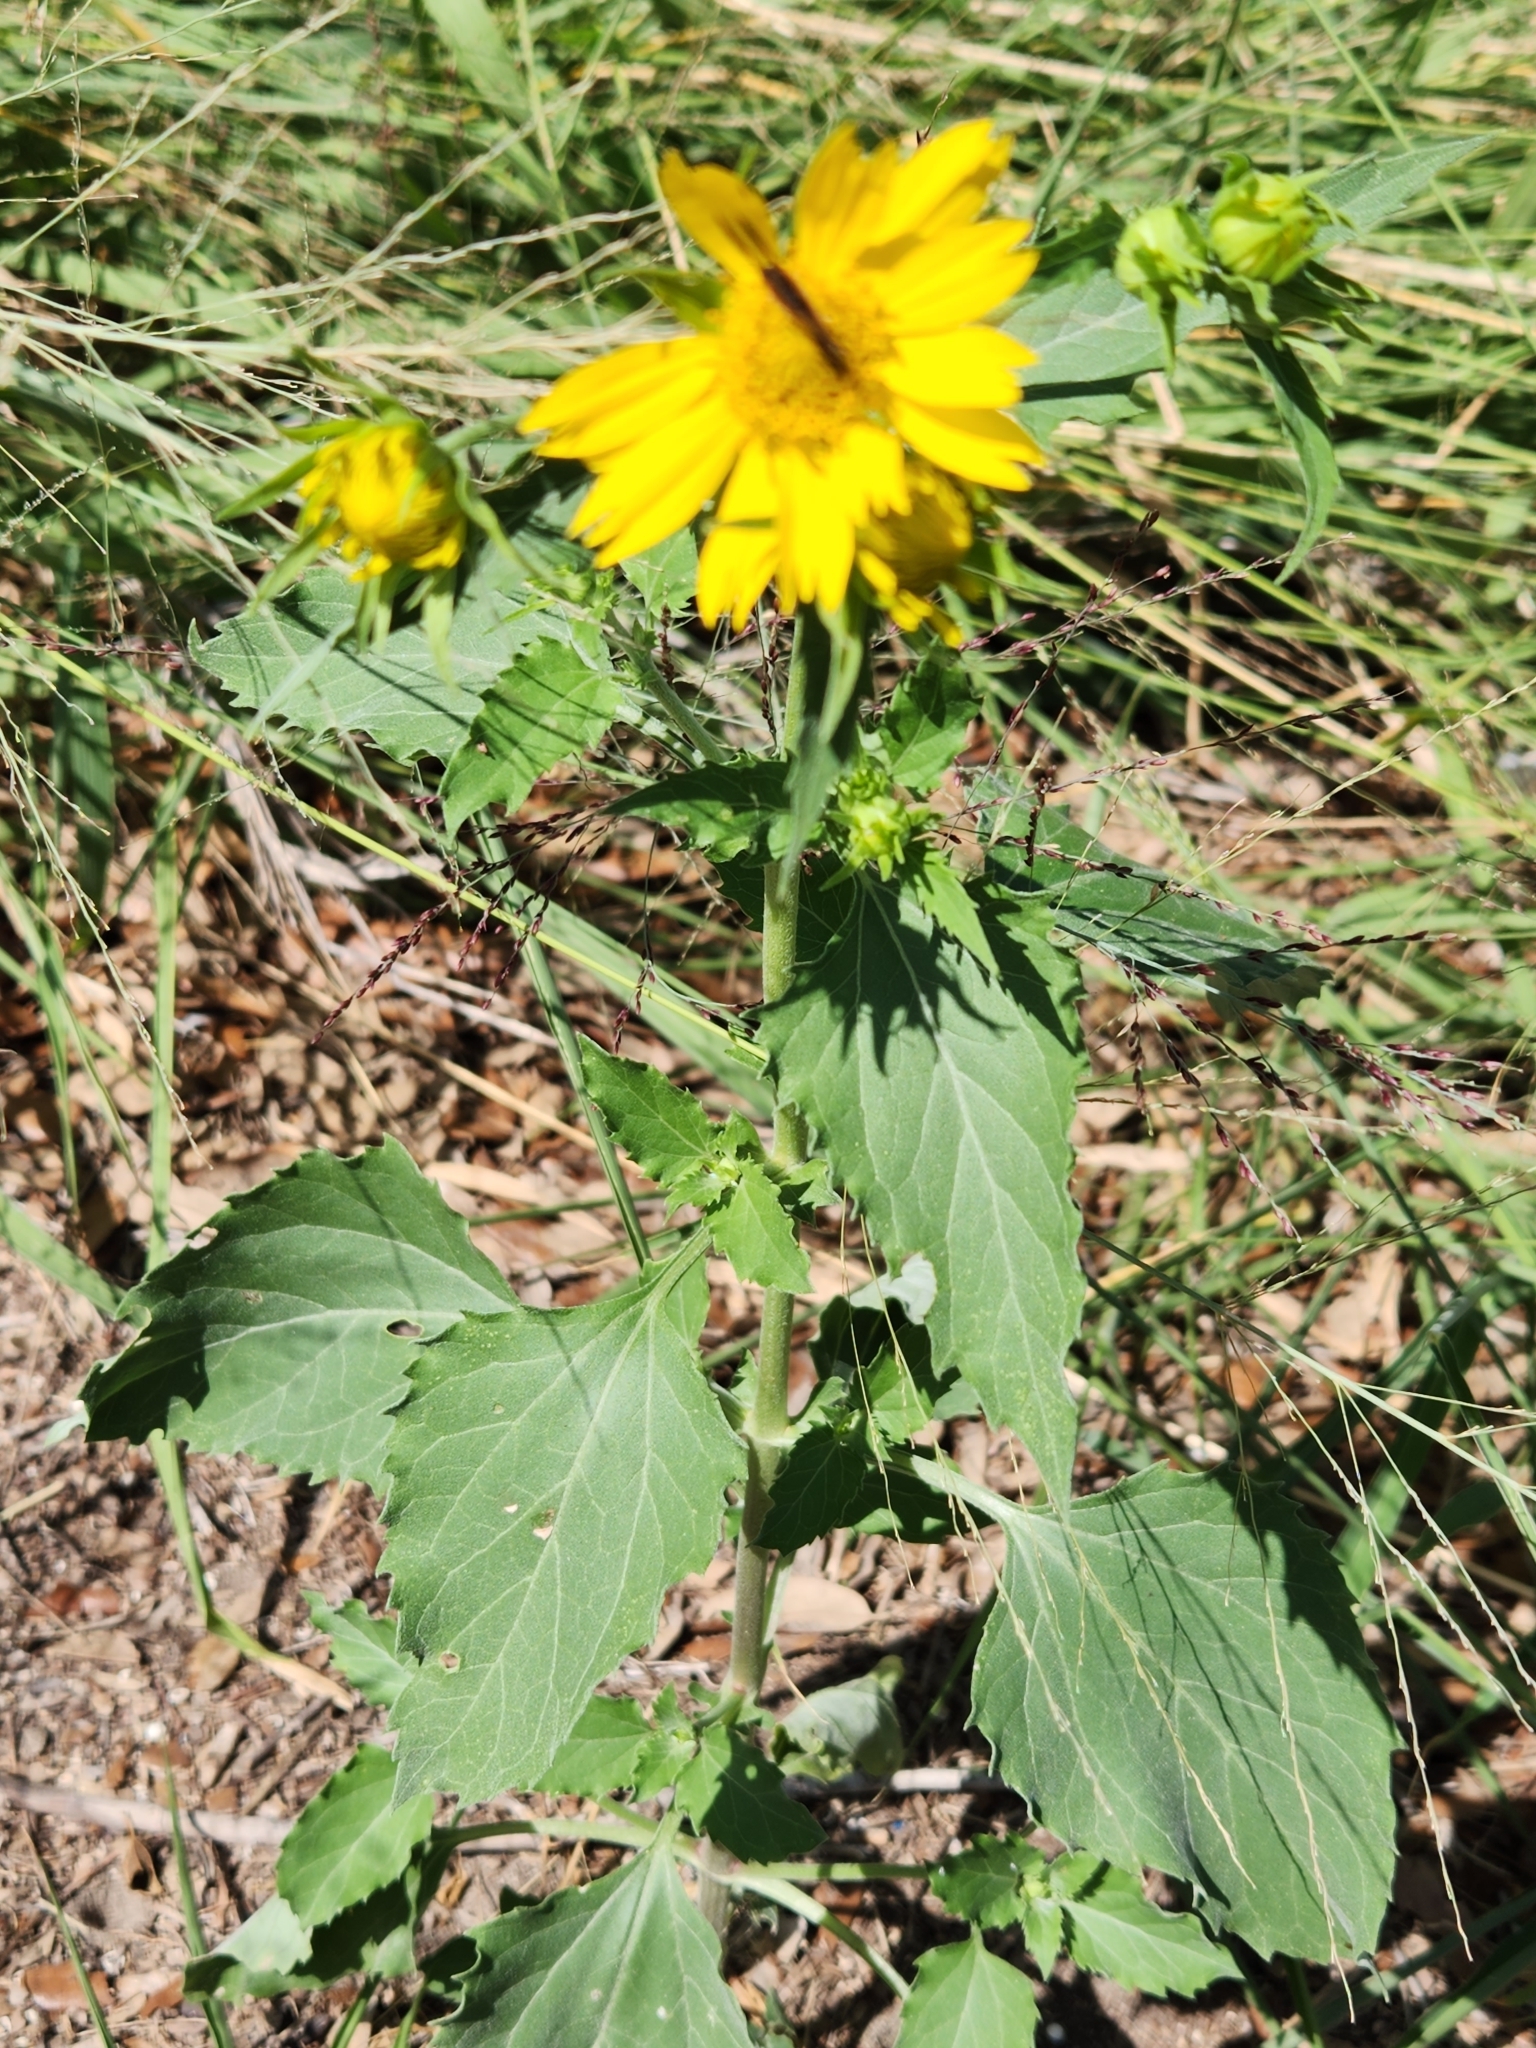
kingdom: Plantae
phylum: Tracheophyta
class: Magnoliopsida
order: Asterales
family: Asteraceae
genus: Verbesina
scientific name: Verbesina encelioides
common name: Golden crownbeard
